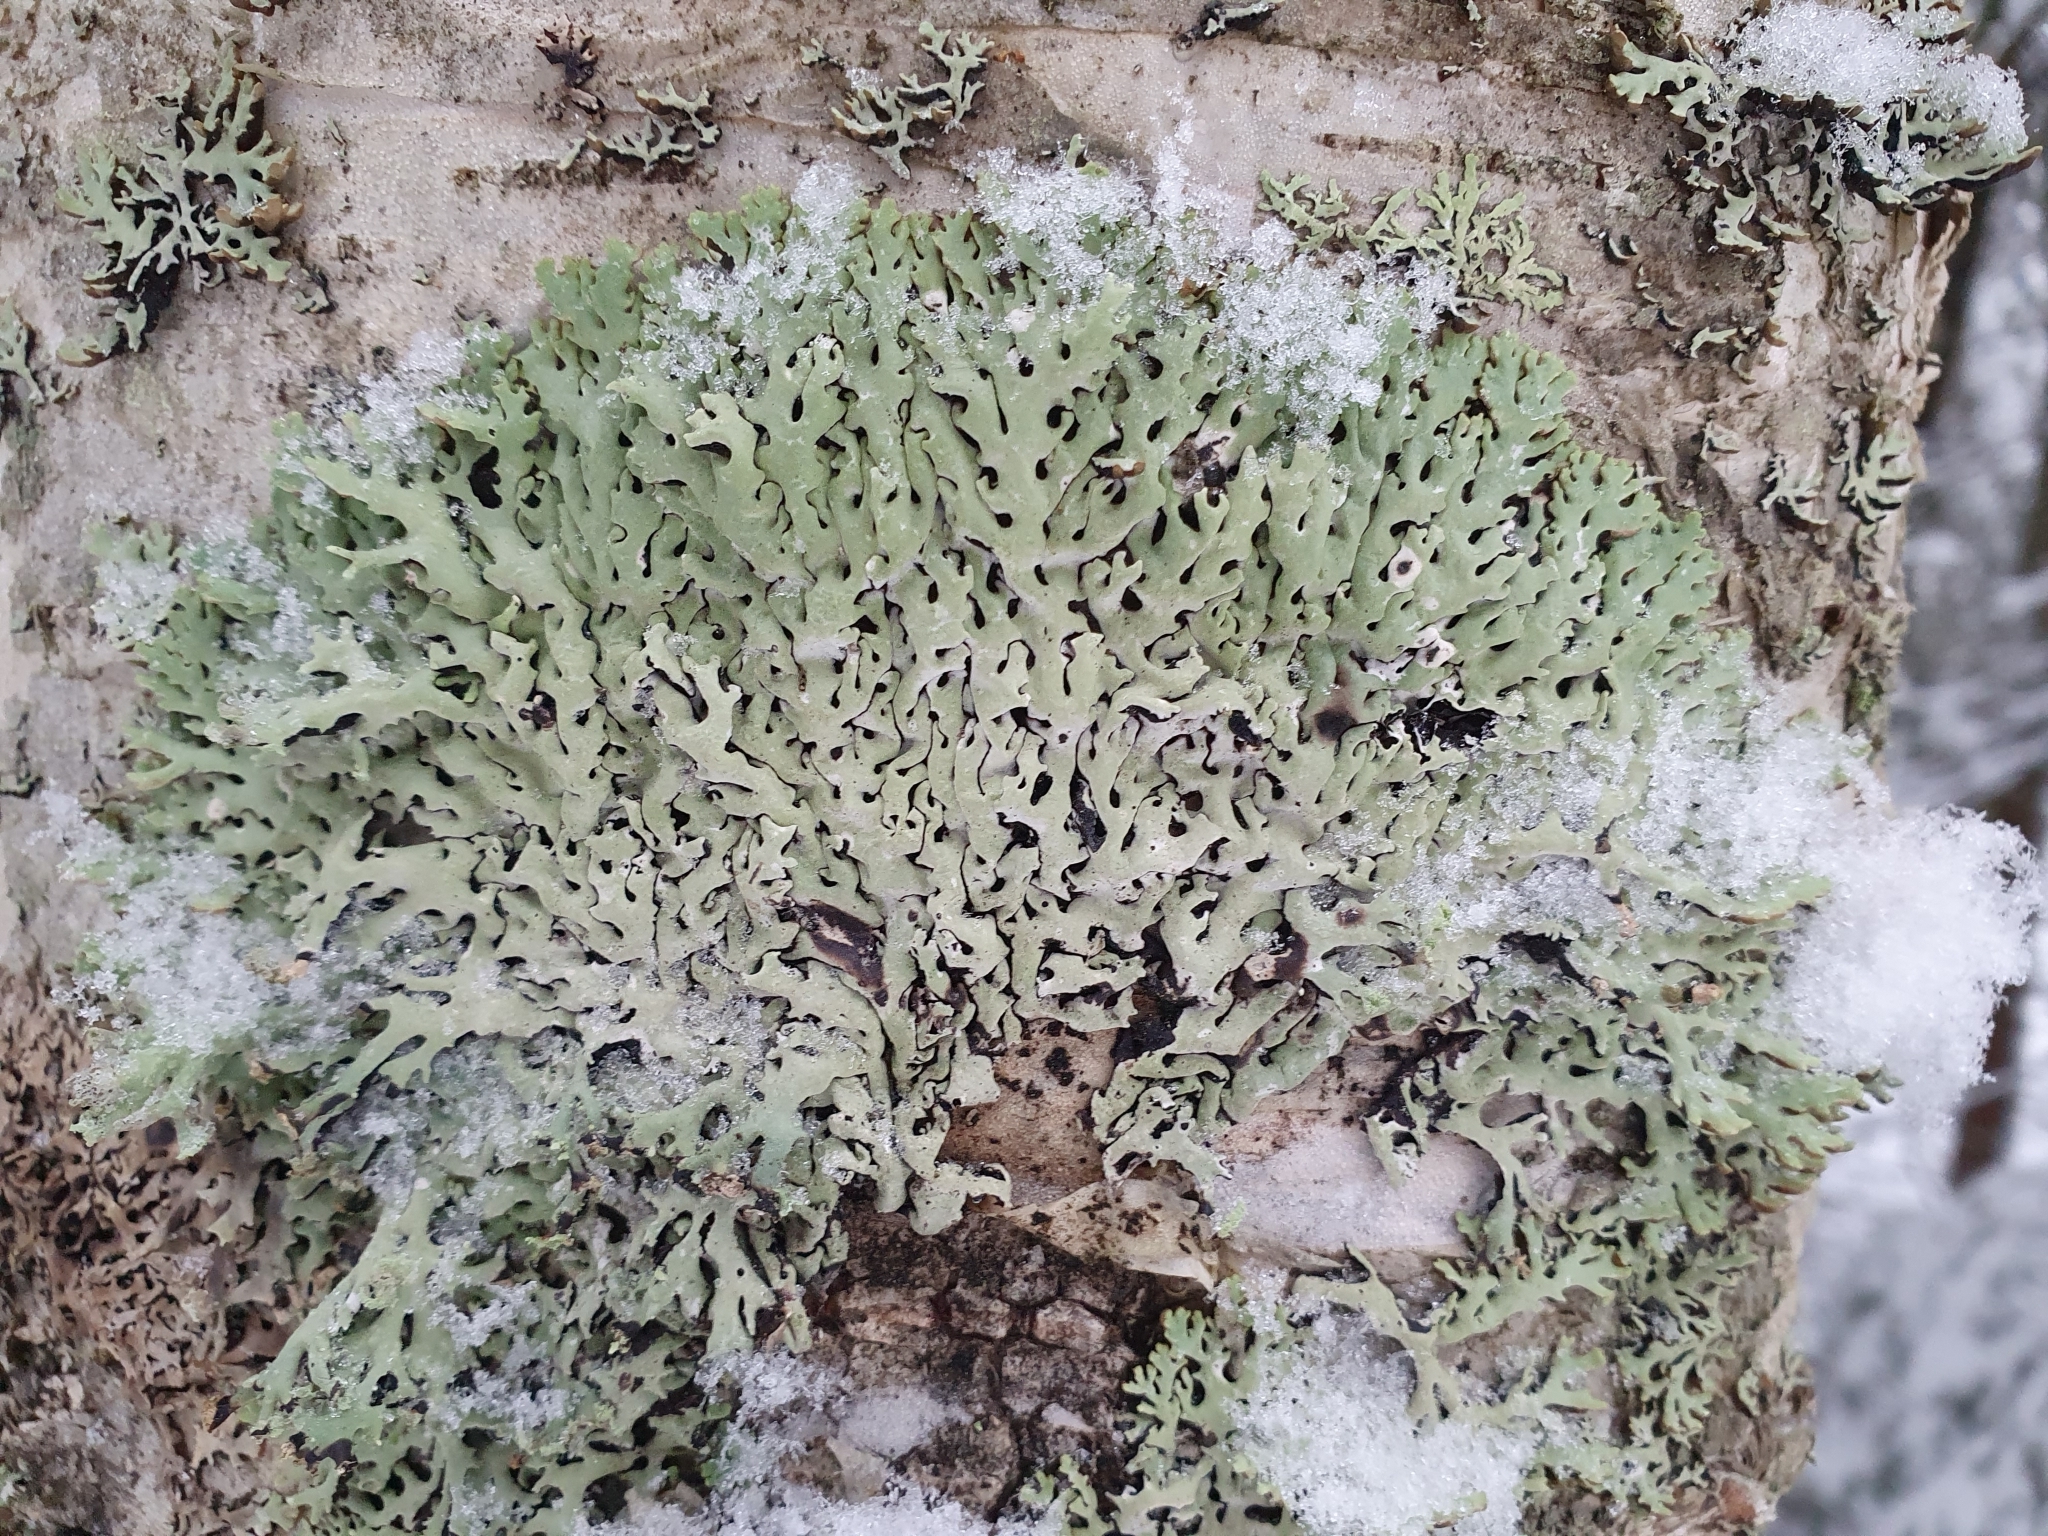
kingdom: Fungi
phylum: Ascomycota
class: Lecanoromycetes
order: Lecanorales
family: Parmeliaceae
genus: Hypogymnia
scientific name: Hypogymnia physodes
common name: Dark crottle
